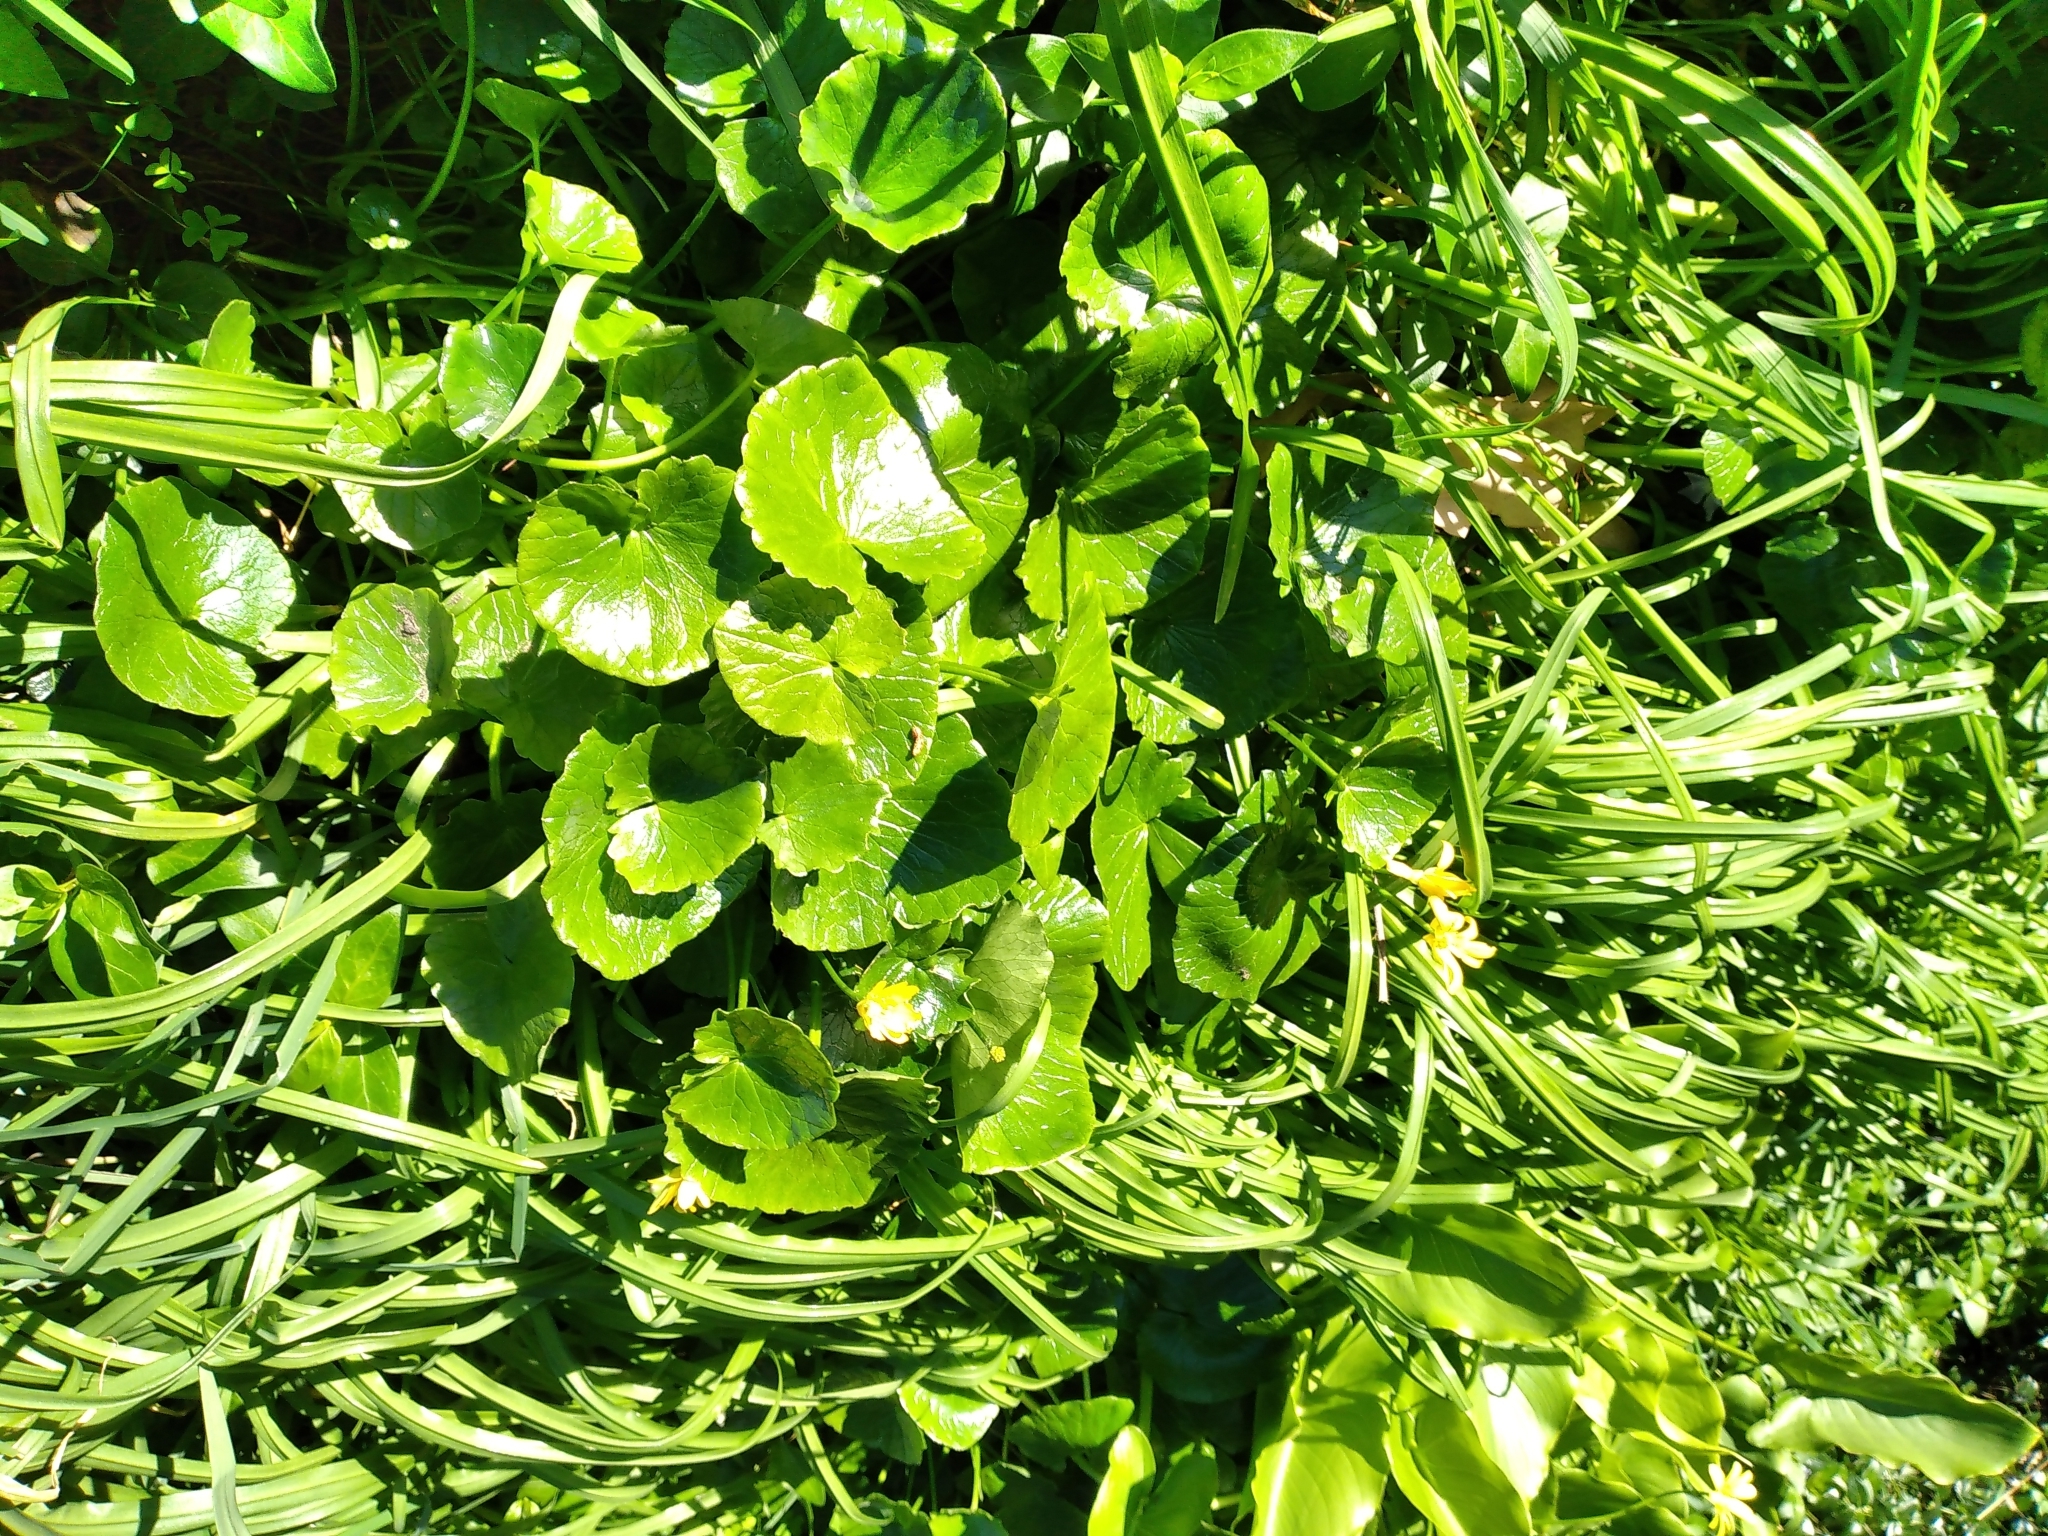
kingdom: Plantae
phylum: Tracheophyta
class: Magnoliopsida
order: Ranunculales
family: Ranunculaceae
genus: Ficaria
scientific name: Ficaria verna
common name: Lesser celandine
